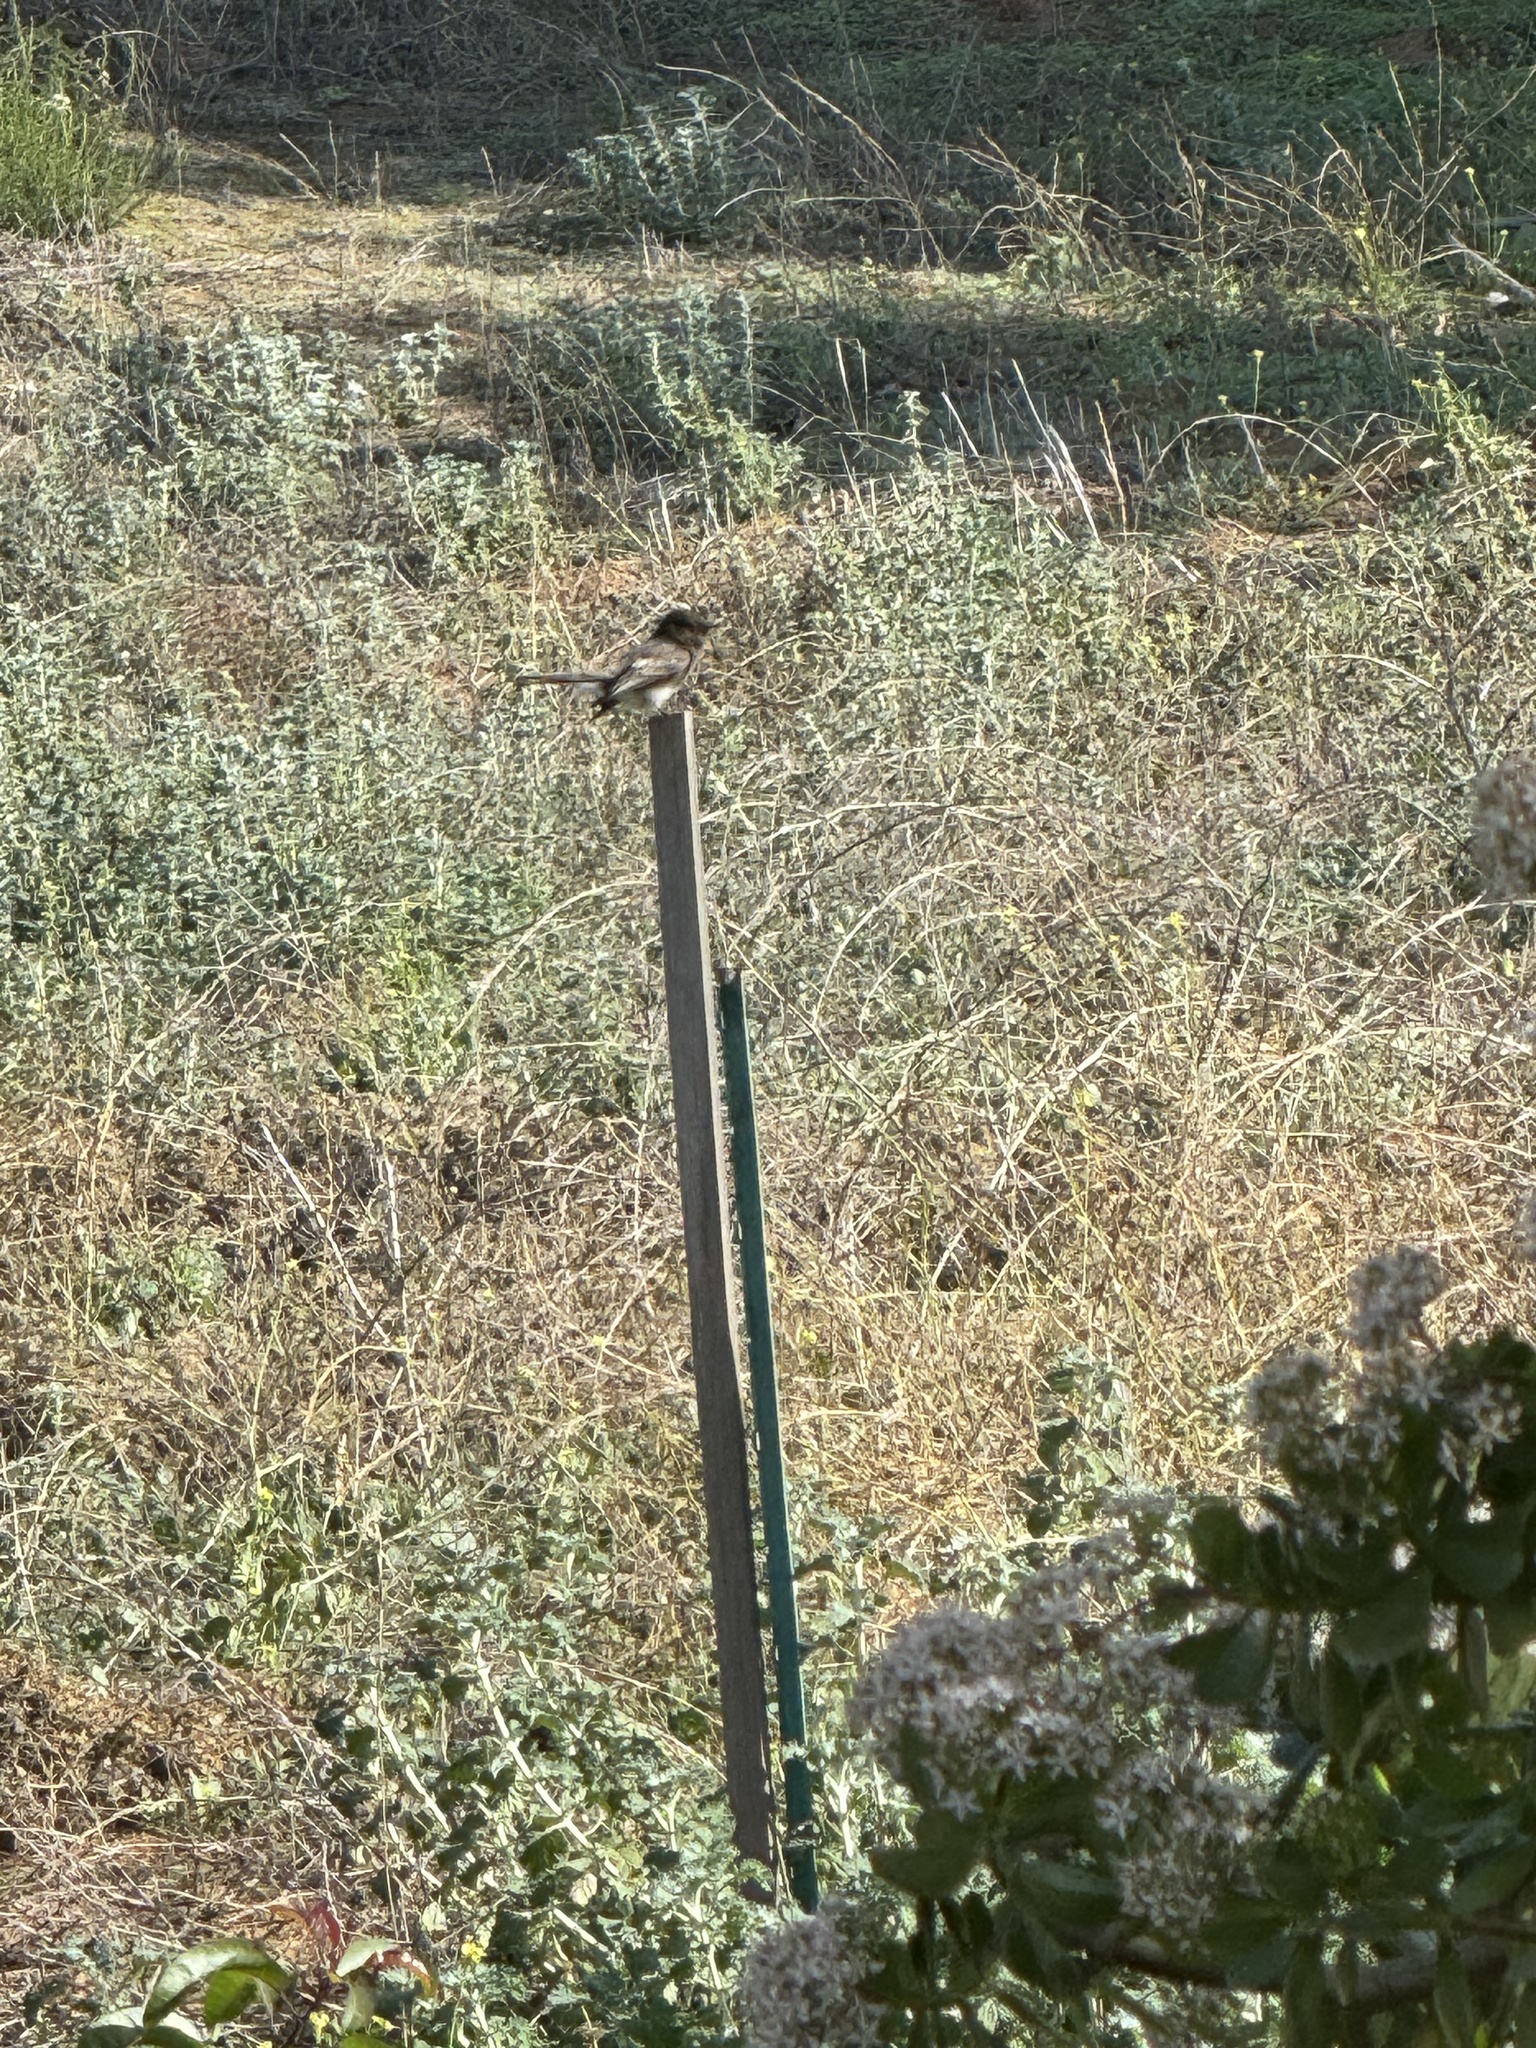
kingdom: Animalia
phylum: Chordata
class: Aves
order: Passeriformes
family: Tyrannidae
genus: Sayornis
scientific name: Sayornis nigricans
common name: Black phoebe
